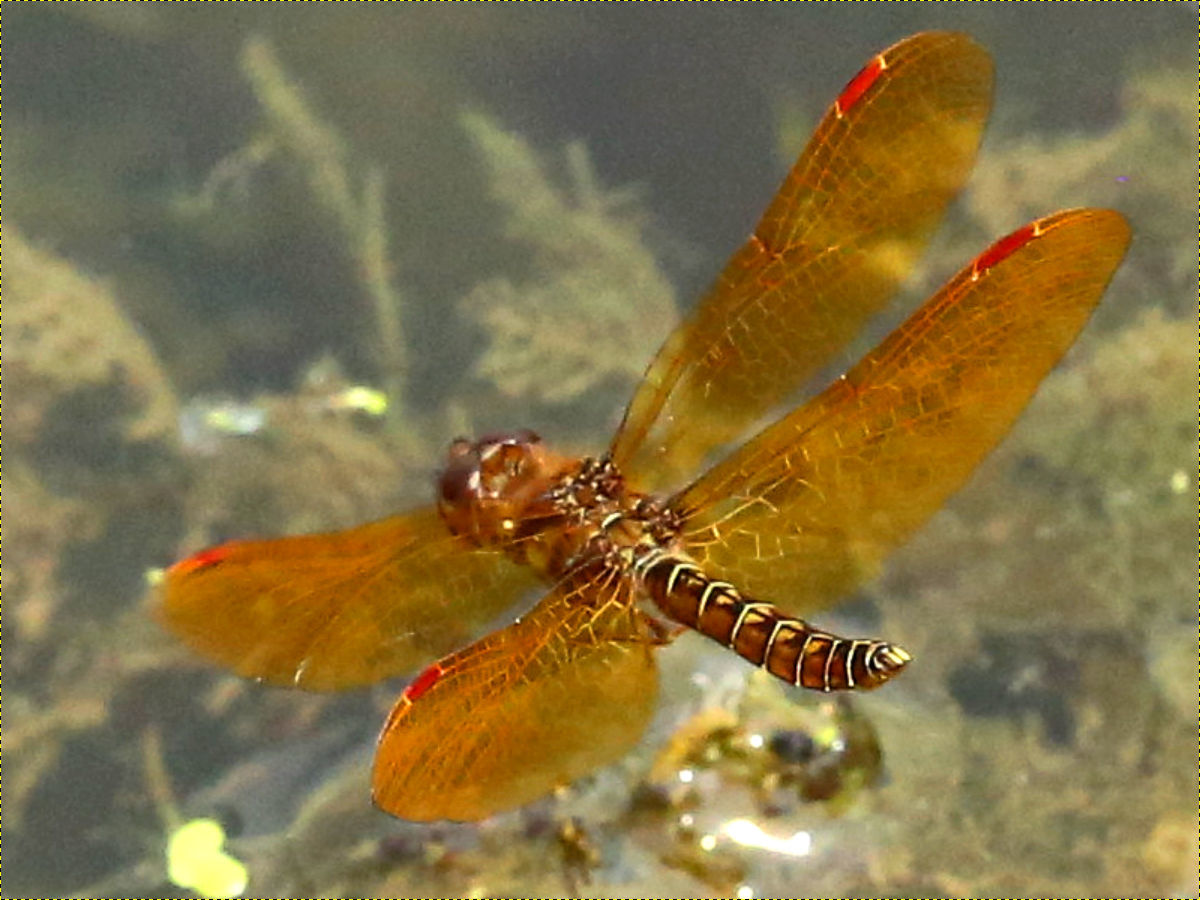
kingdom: Animalia
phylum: Arthropoda
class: Insecta
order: Odonata
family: Libellulidae
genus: Perithemis
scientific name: Perithemis tenera
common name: Eastern amberwing
